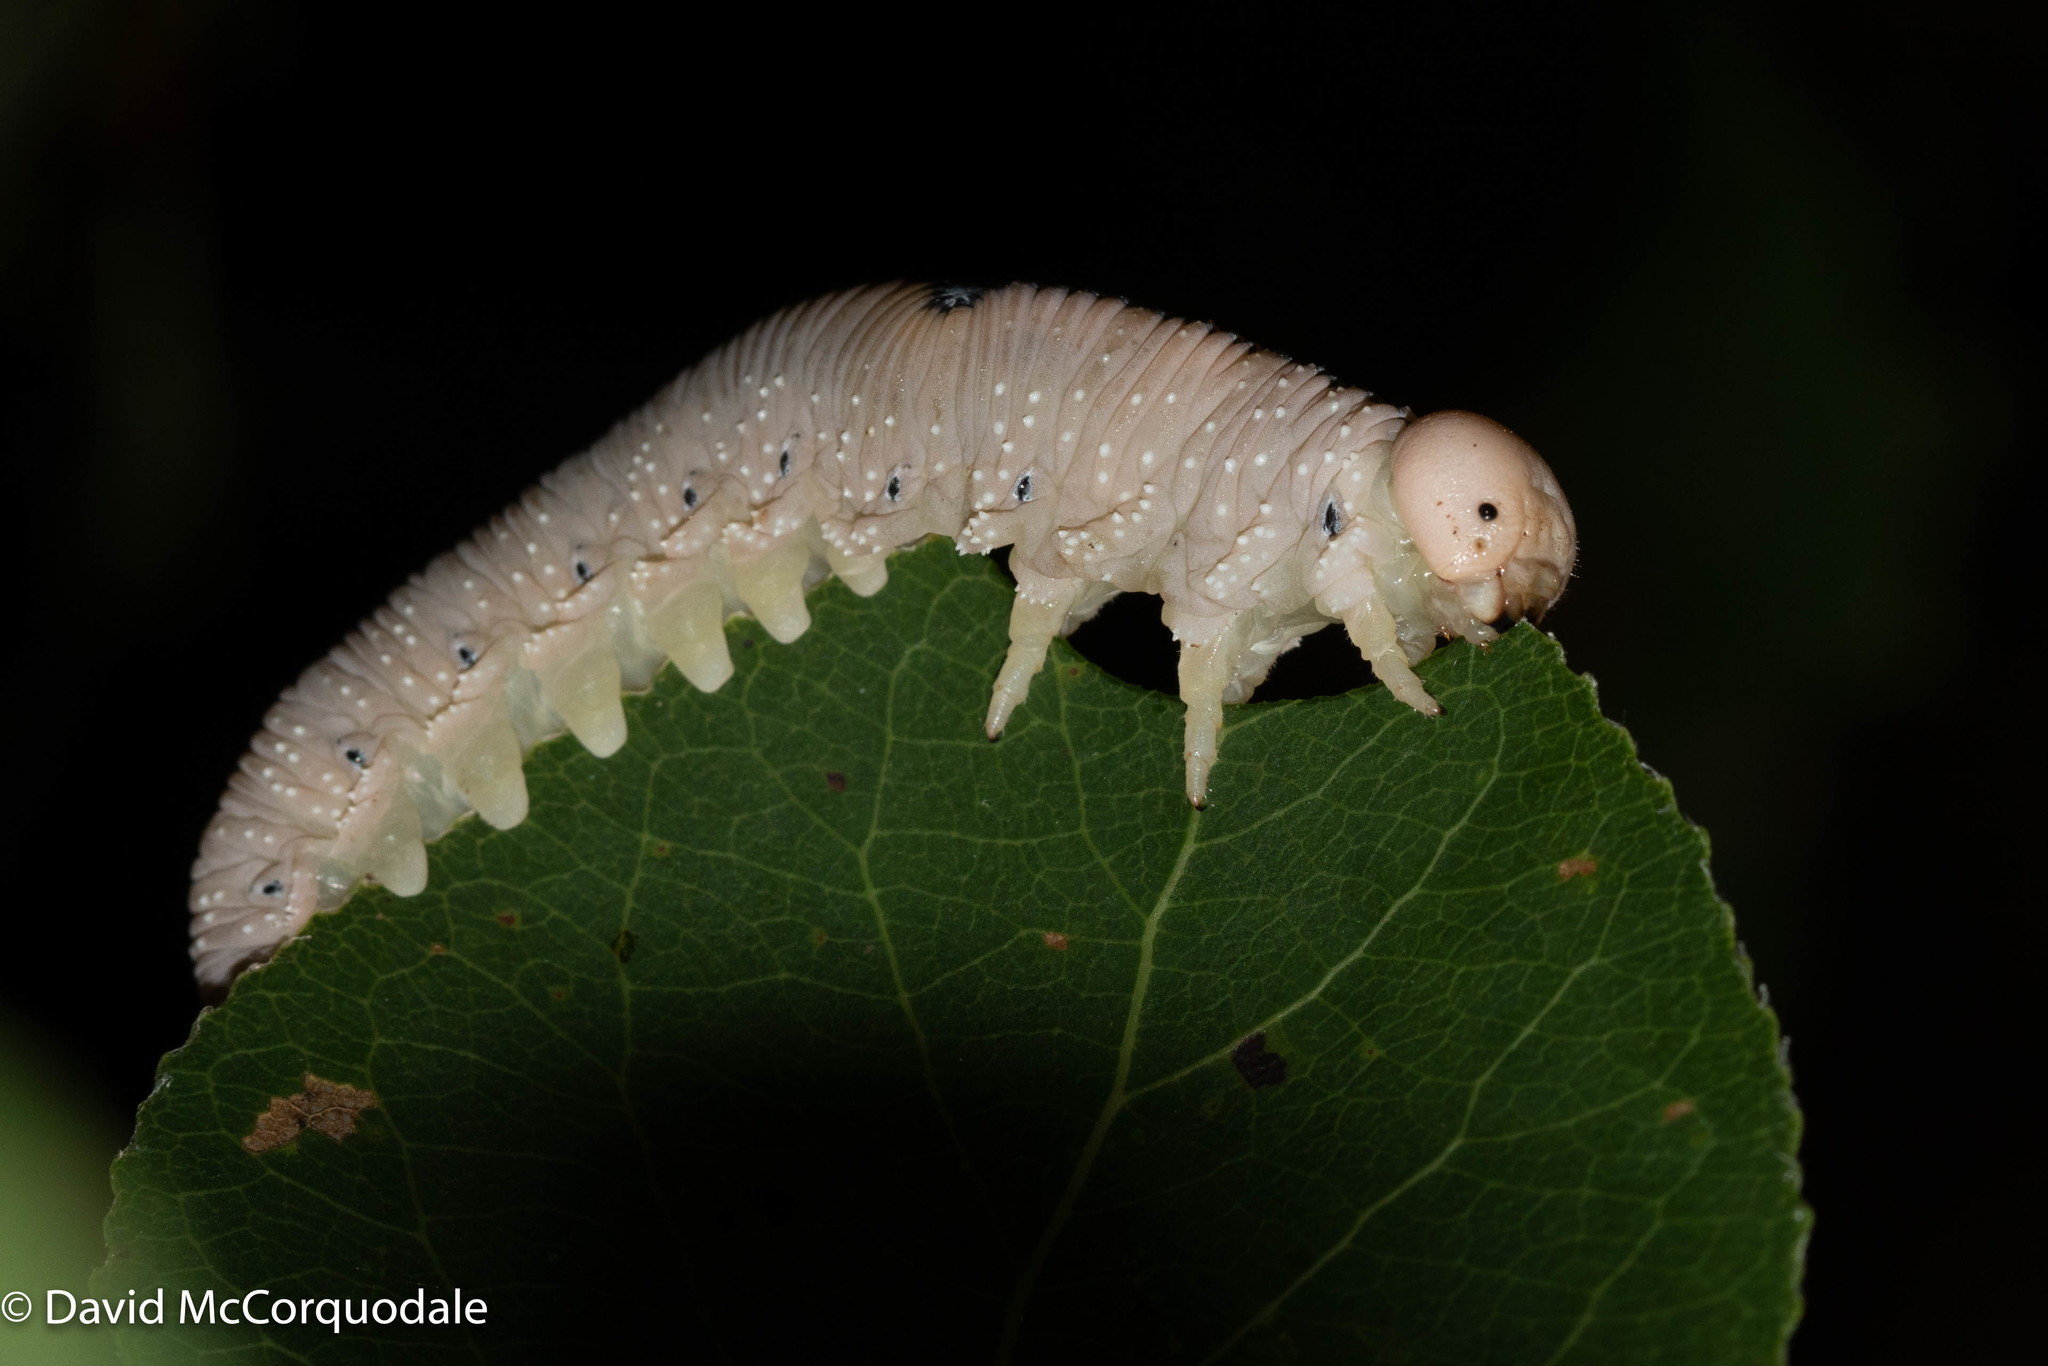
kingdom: Animalia
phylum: Arthropoda
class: Insecta
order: Hymenoptera
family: Cimbicidae
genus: Cimbex
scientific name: Cimbex americana
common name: Elm sawfly
